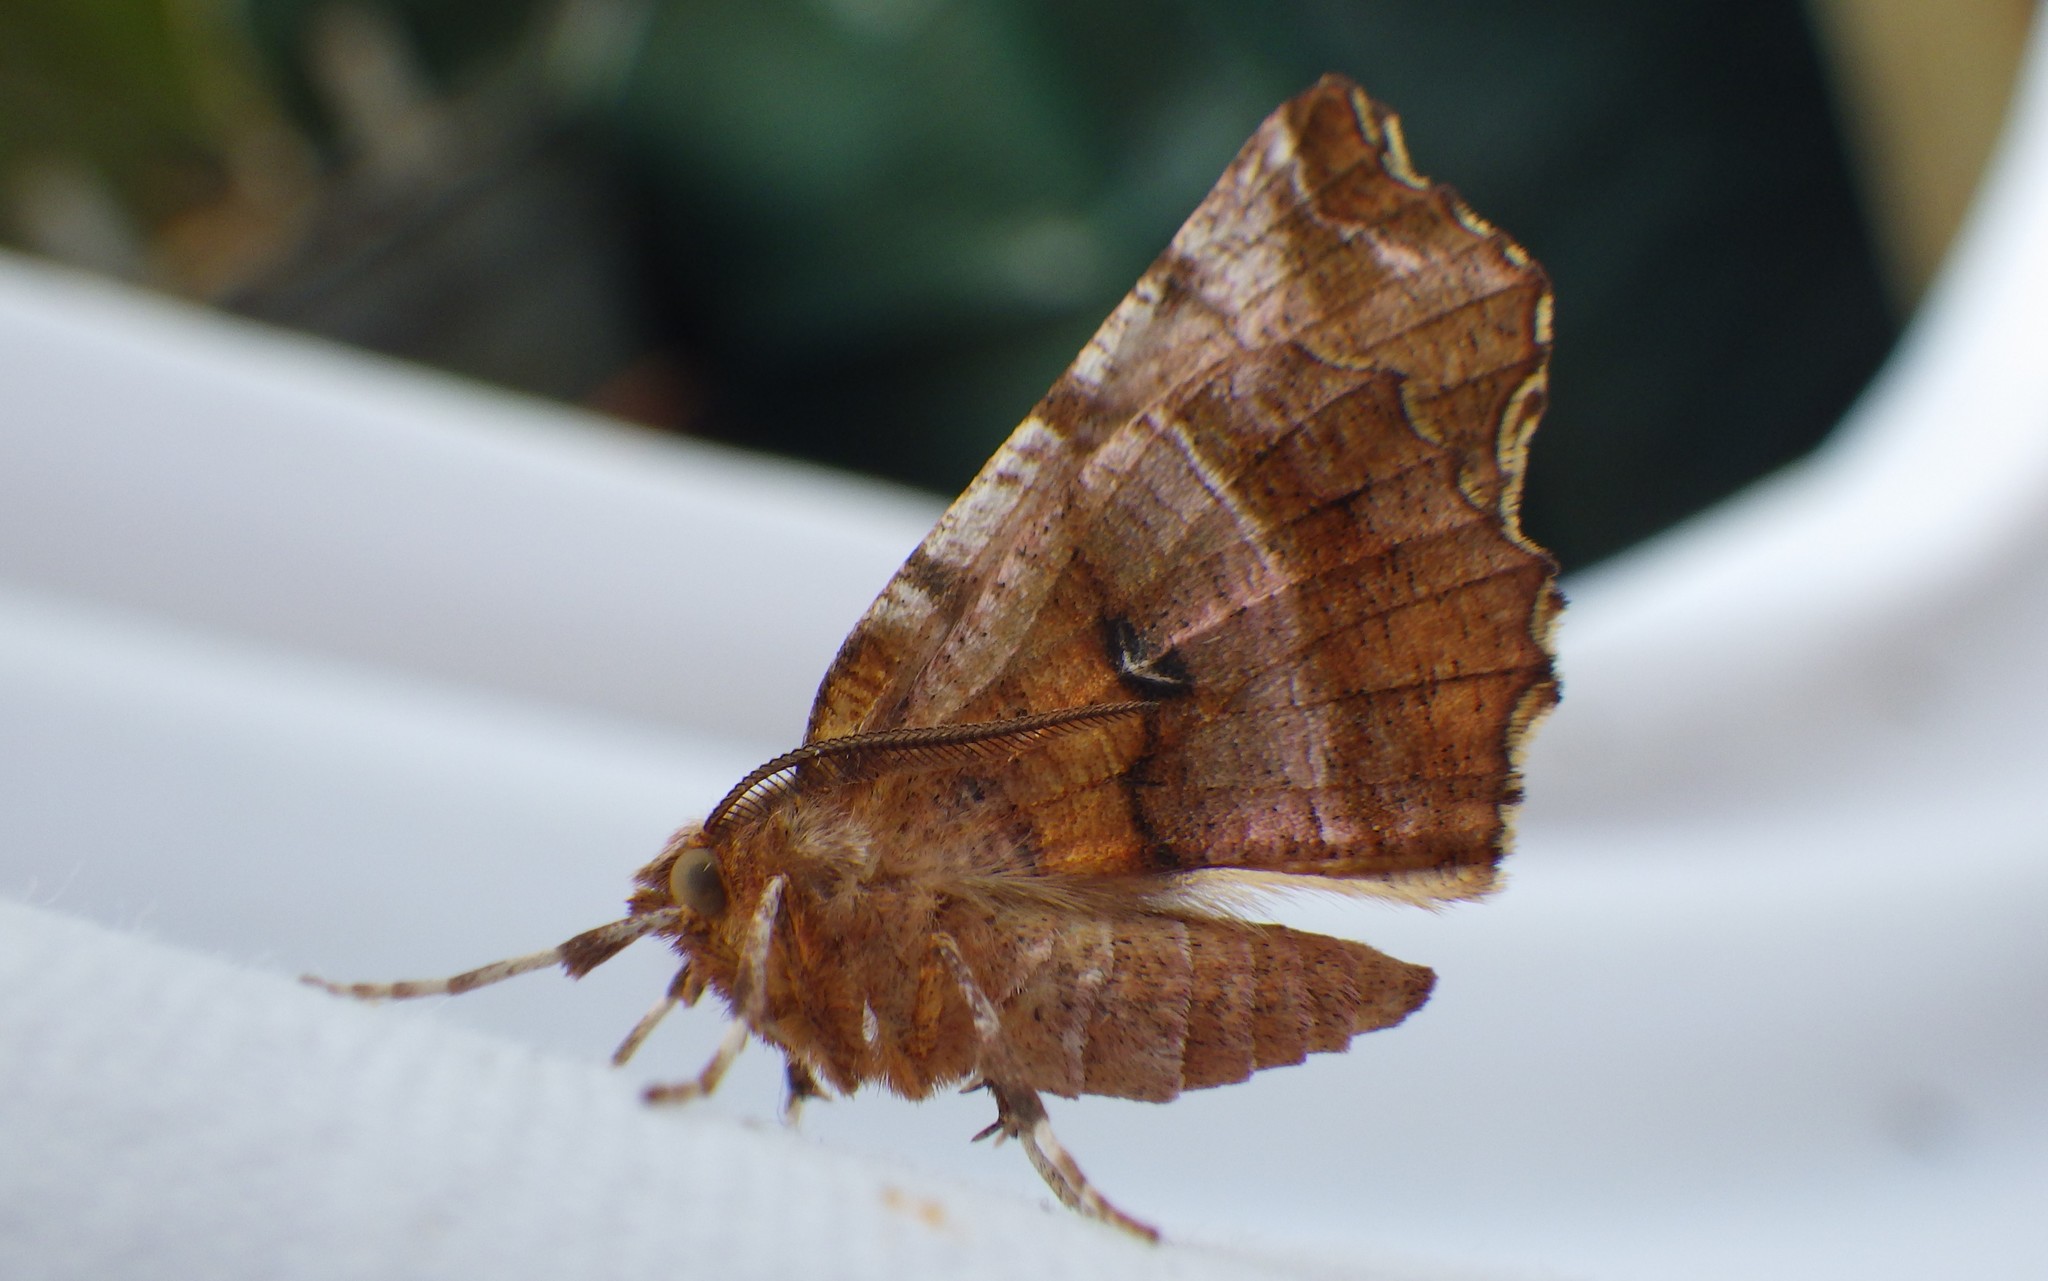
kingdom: Animalia
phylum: Arthropoda
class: Insecta
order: Lepidoptera
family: Geometridae
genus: Selenia
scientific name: Selenia dentaria
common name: Early thorn
